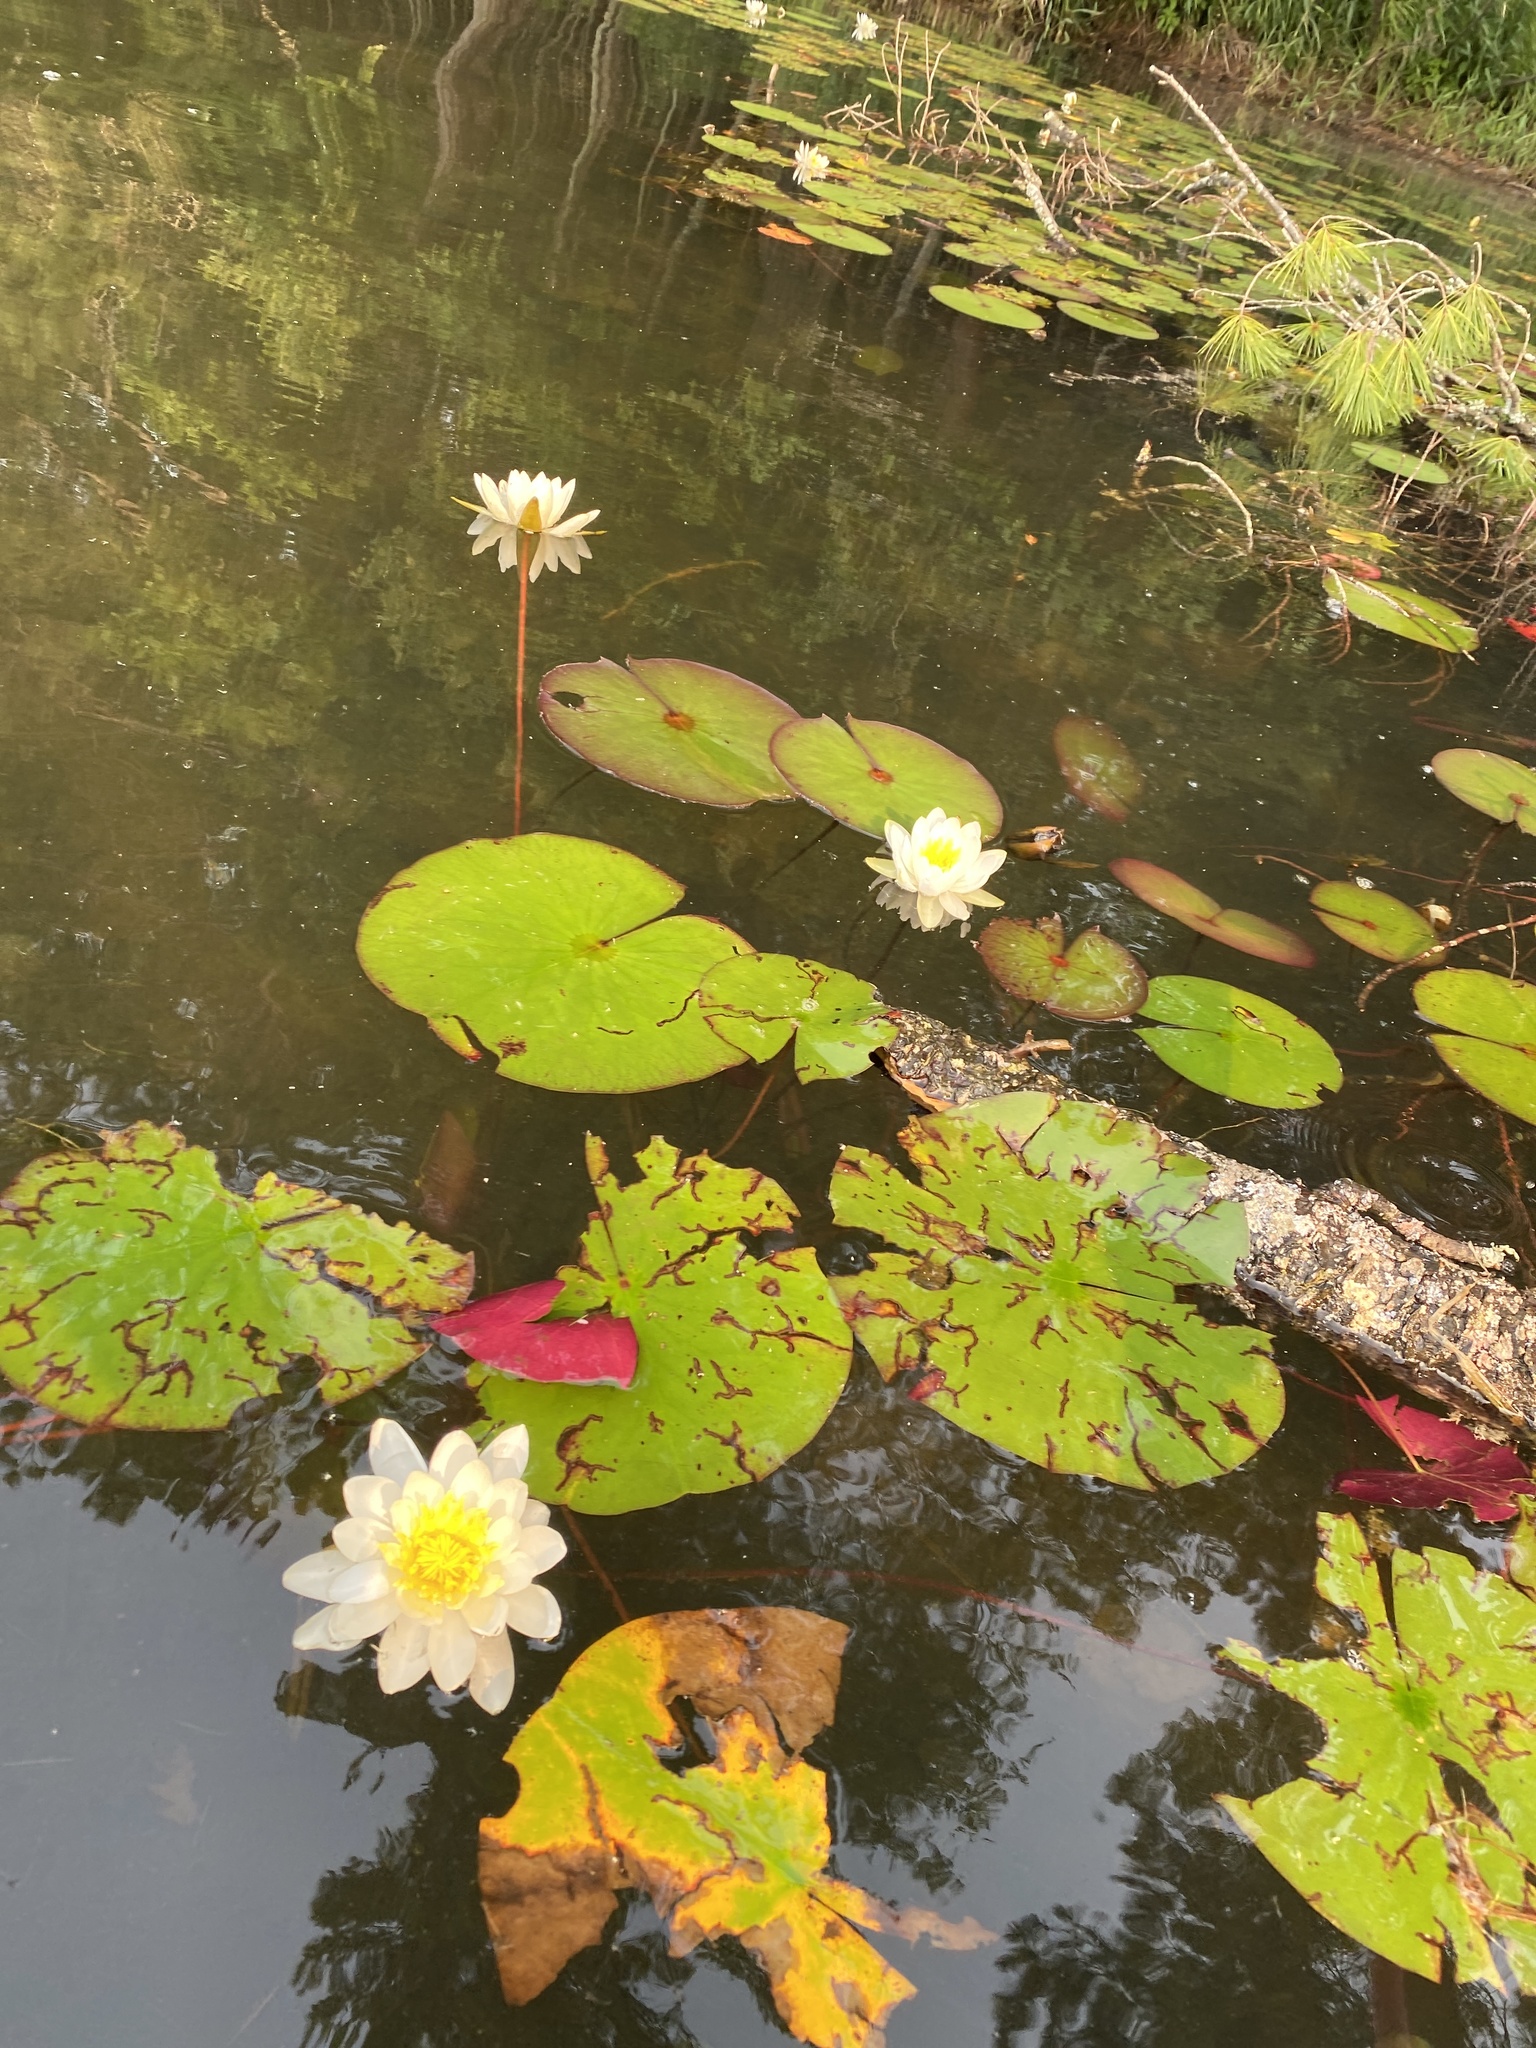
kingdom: Plantae
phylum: Tracheophyta
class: Magnoliopsida
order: Nymphaeales
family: Nymphaeaceae
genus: Nymphaea
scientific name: Nymphaea odorata
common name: Fragrant water-lily
